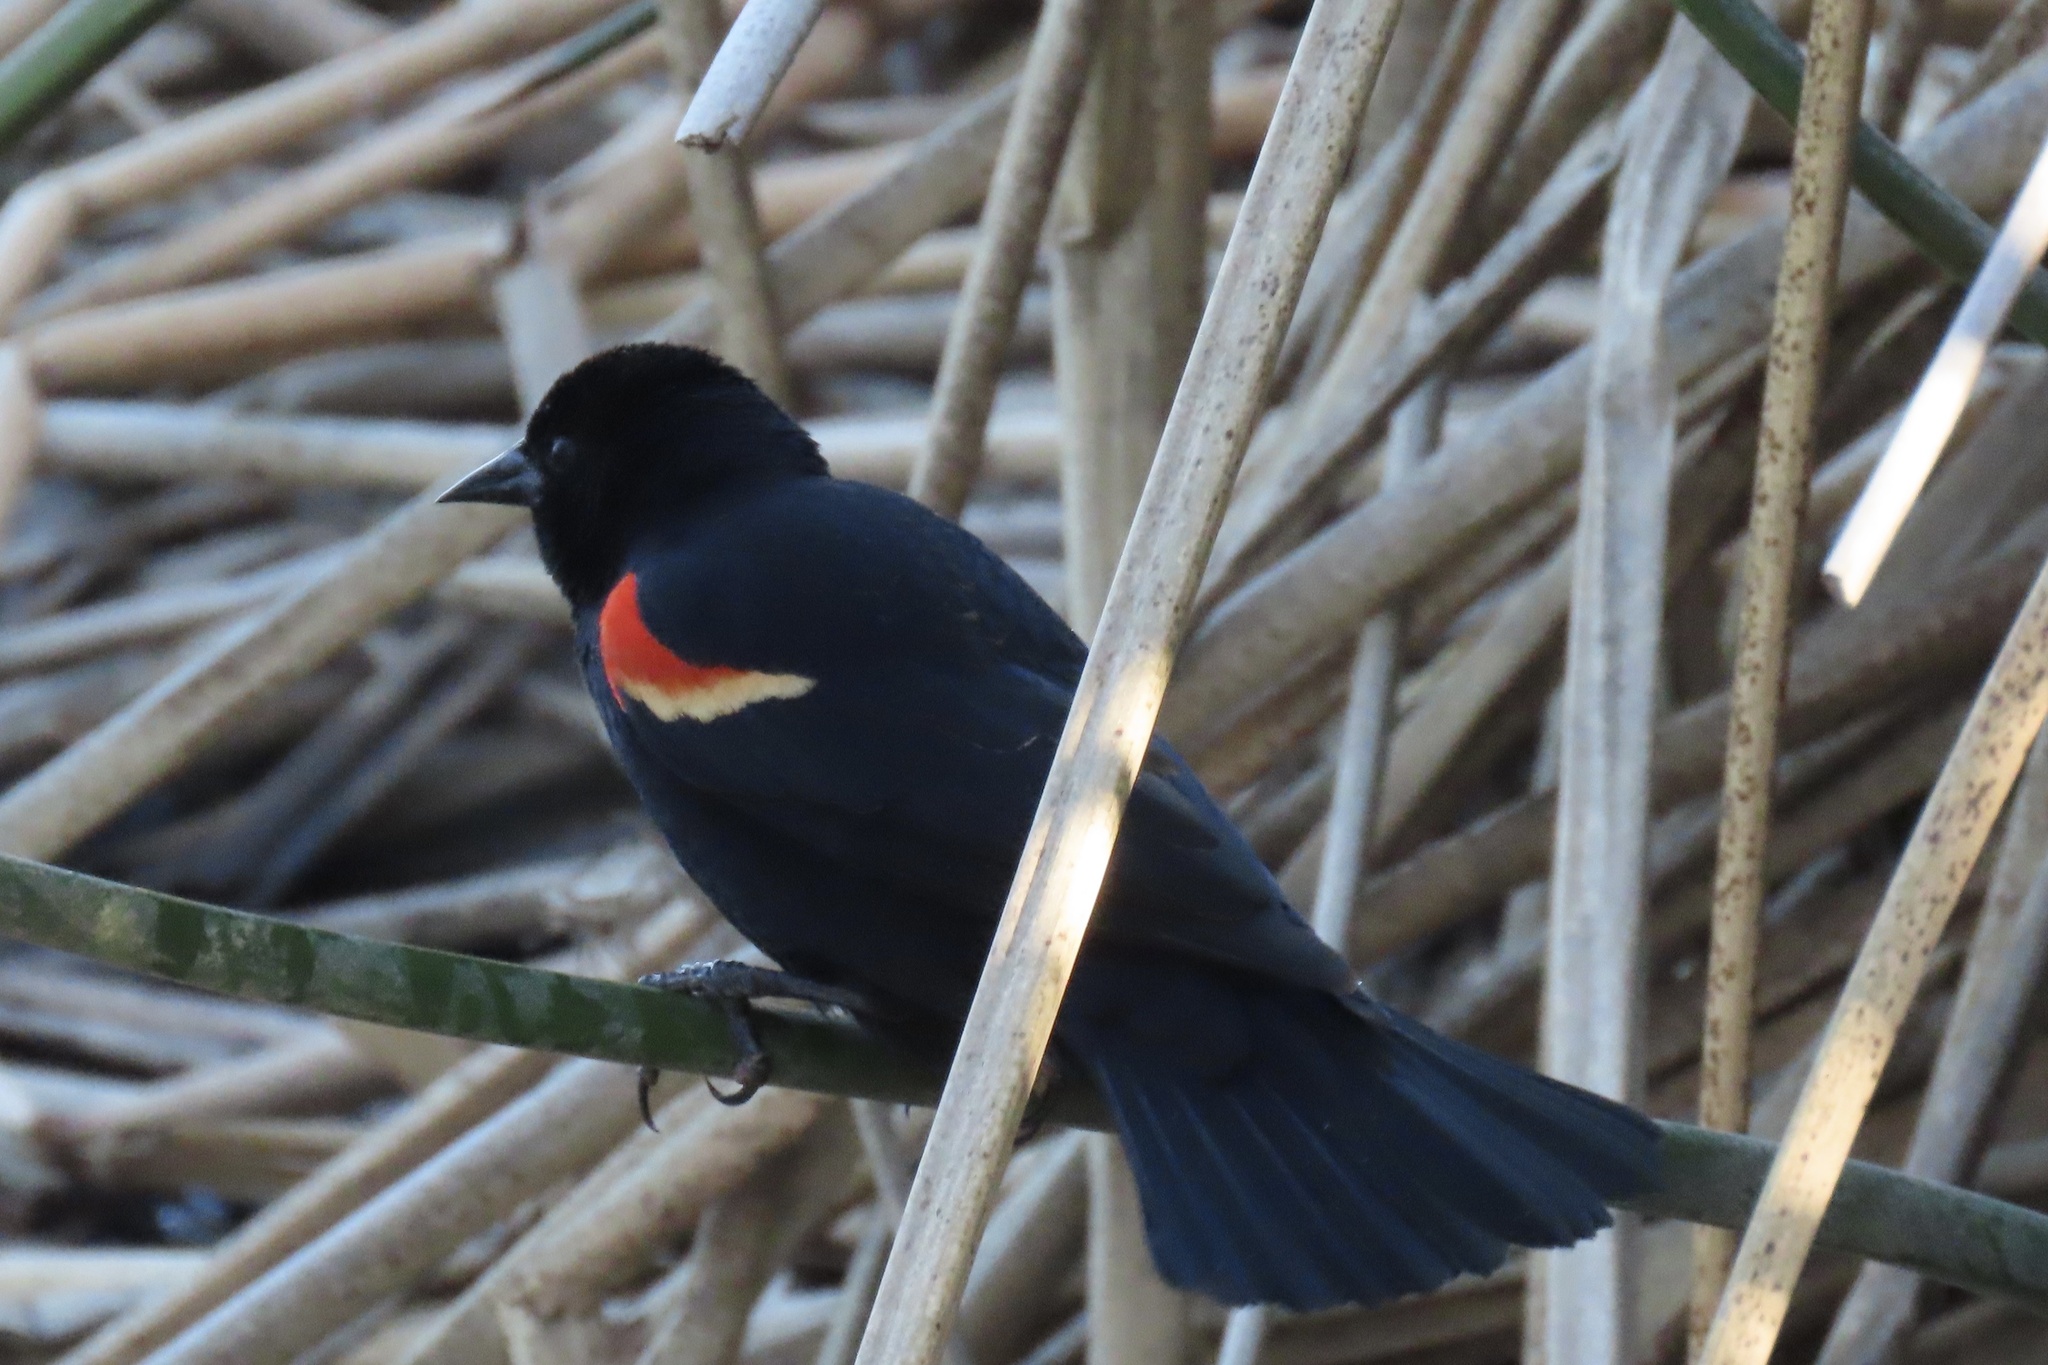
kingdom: Animalia
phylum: Chordata
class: Aves
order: Passeriformes
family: Icteridae
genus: Agelaius
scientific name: Agelaius phoeniceus
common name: Red-winged blackbird
